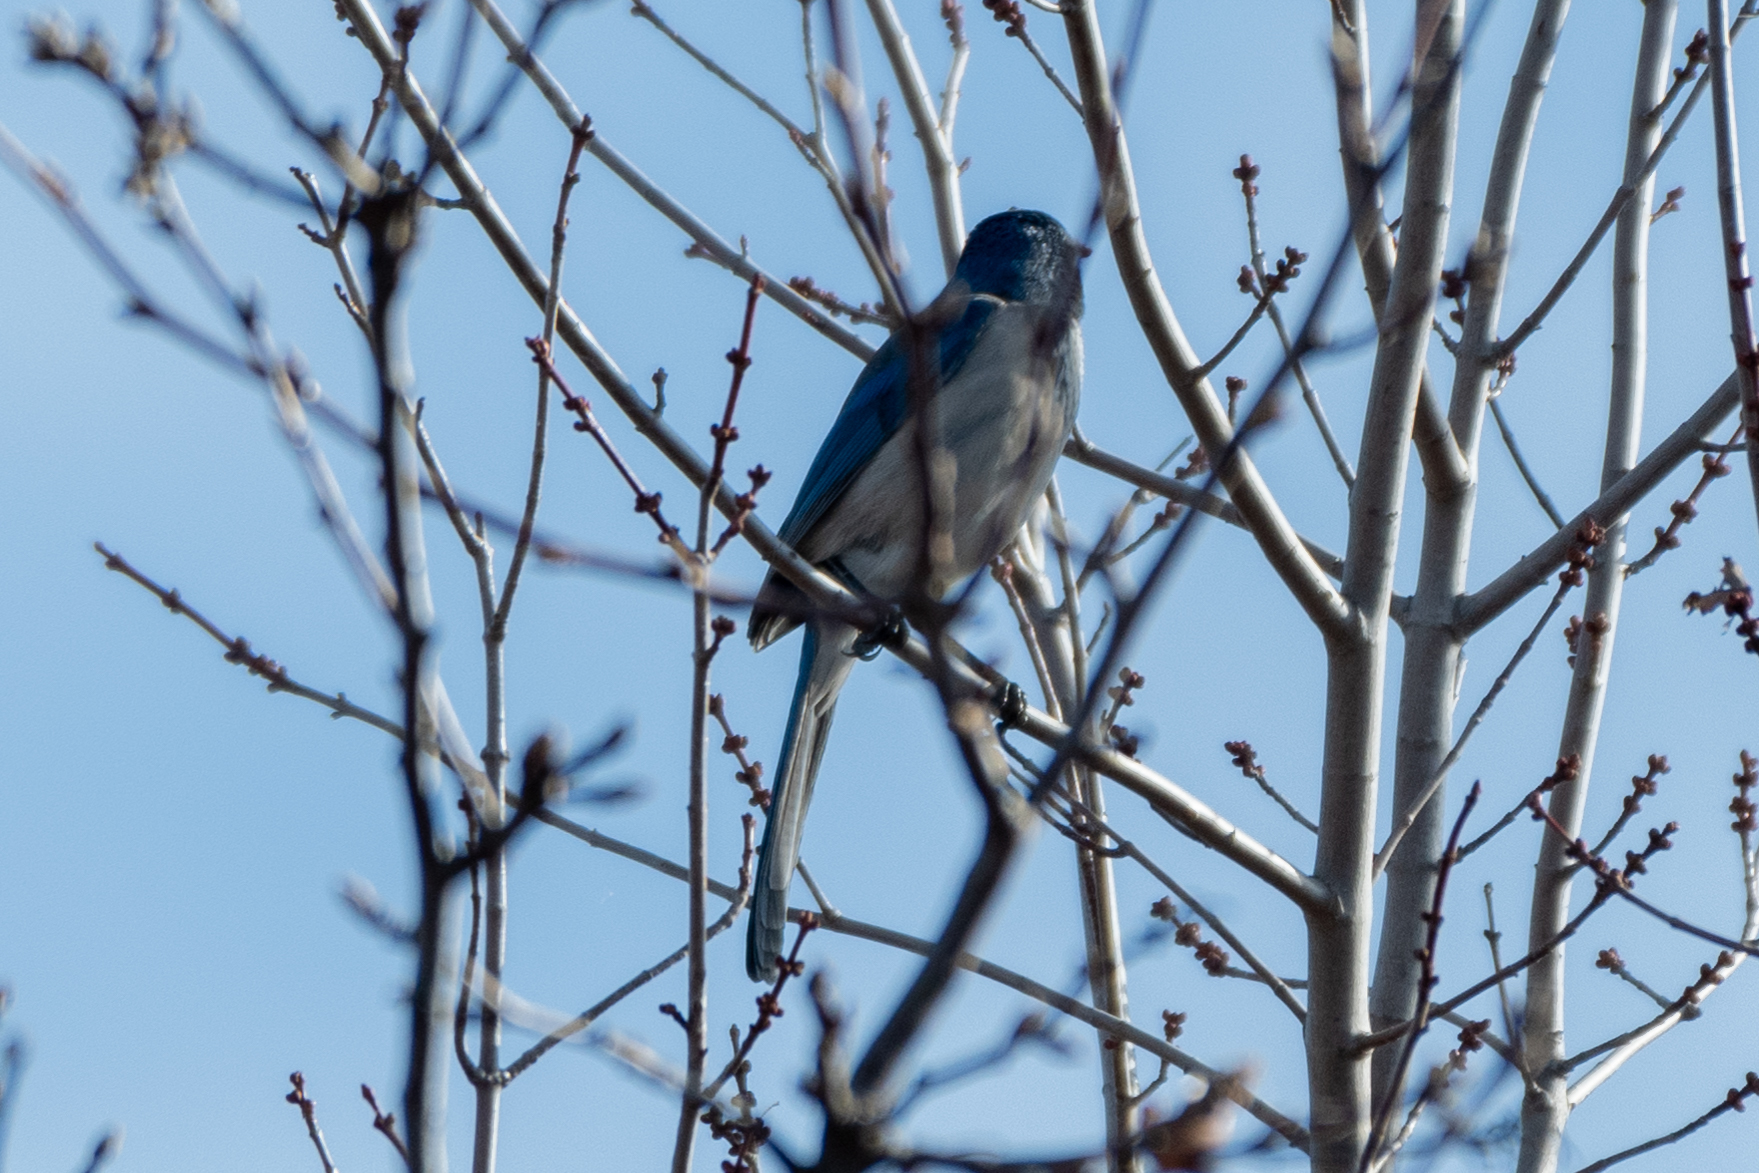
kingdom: Animalia
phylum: Chordata
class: Aves
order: Passeriformes
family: Corvidae
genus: Aphelocoma
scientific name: Aphelocoma californica
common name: California scrub-jay
